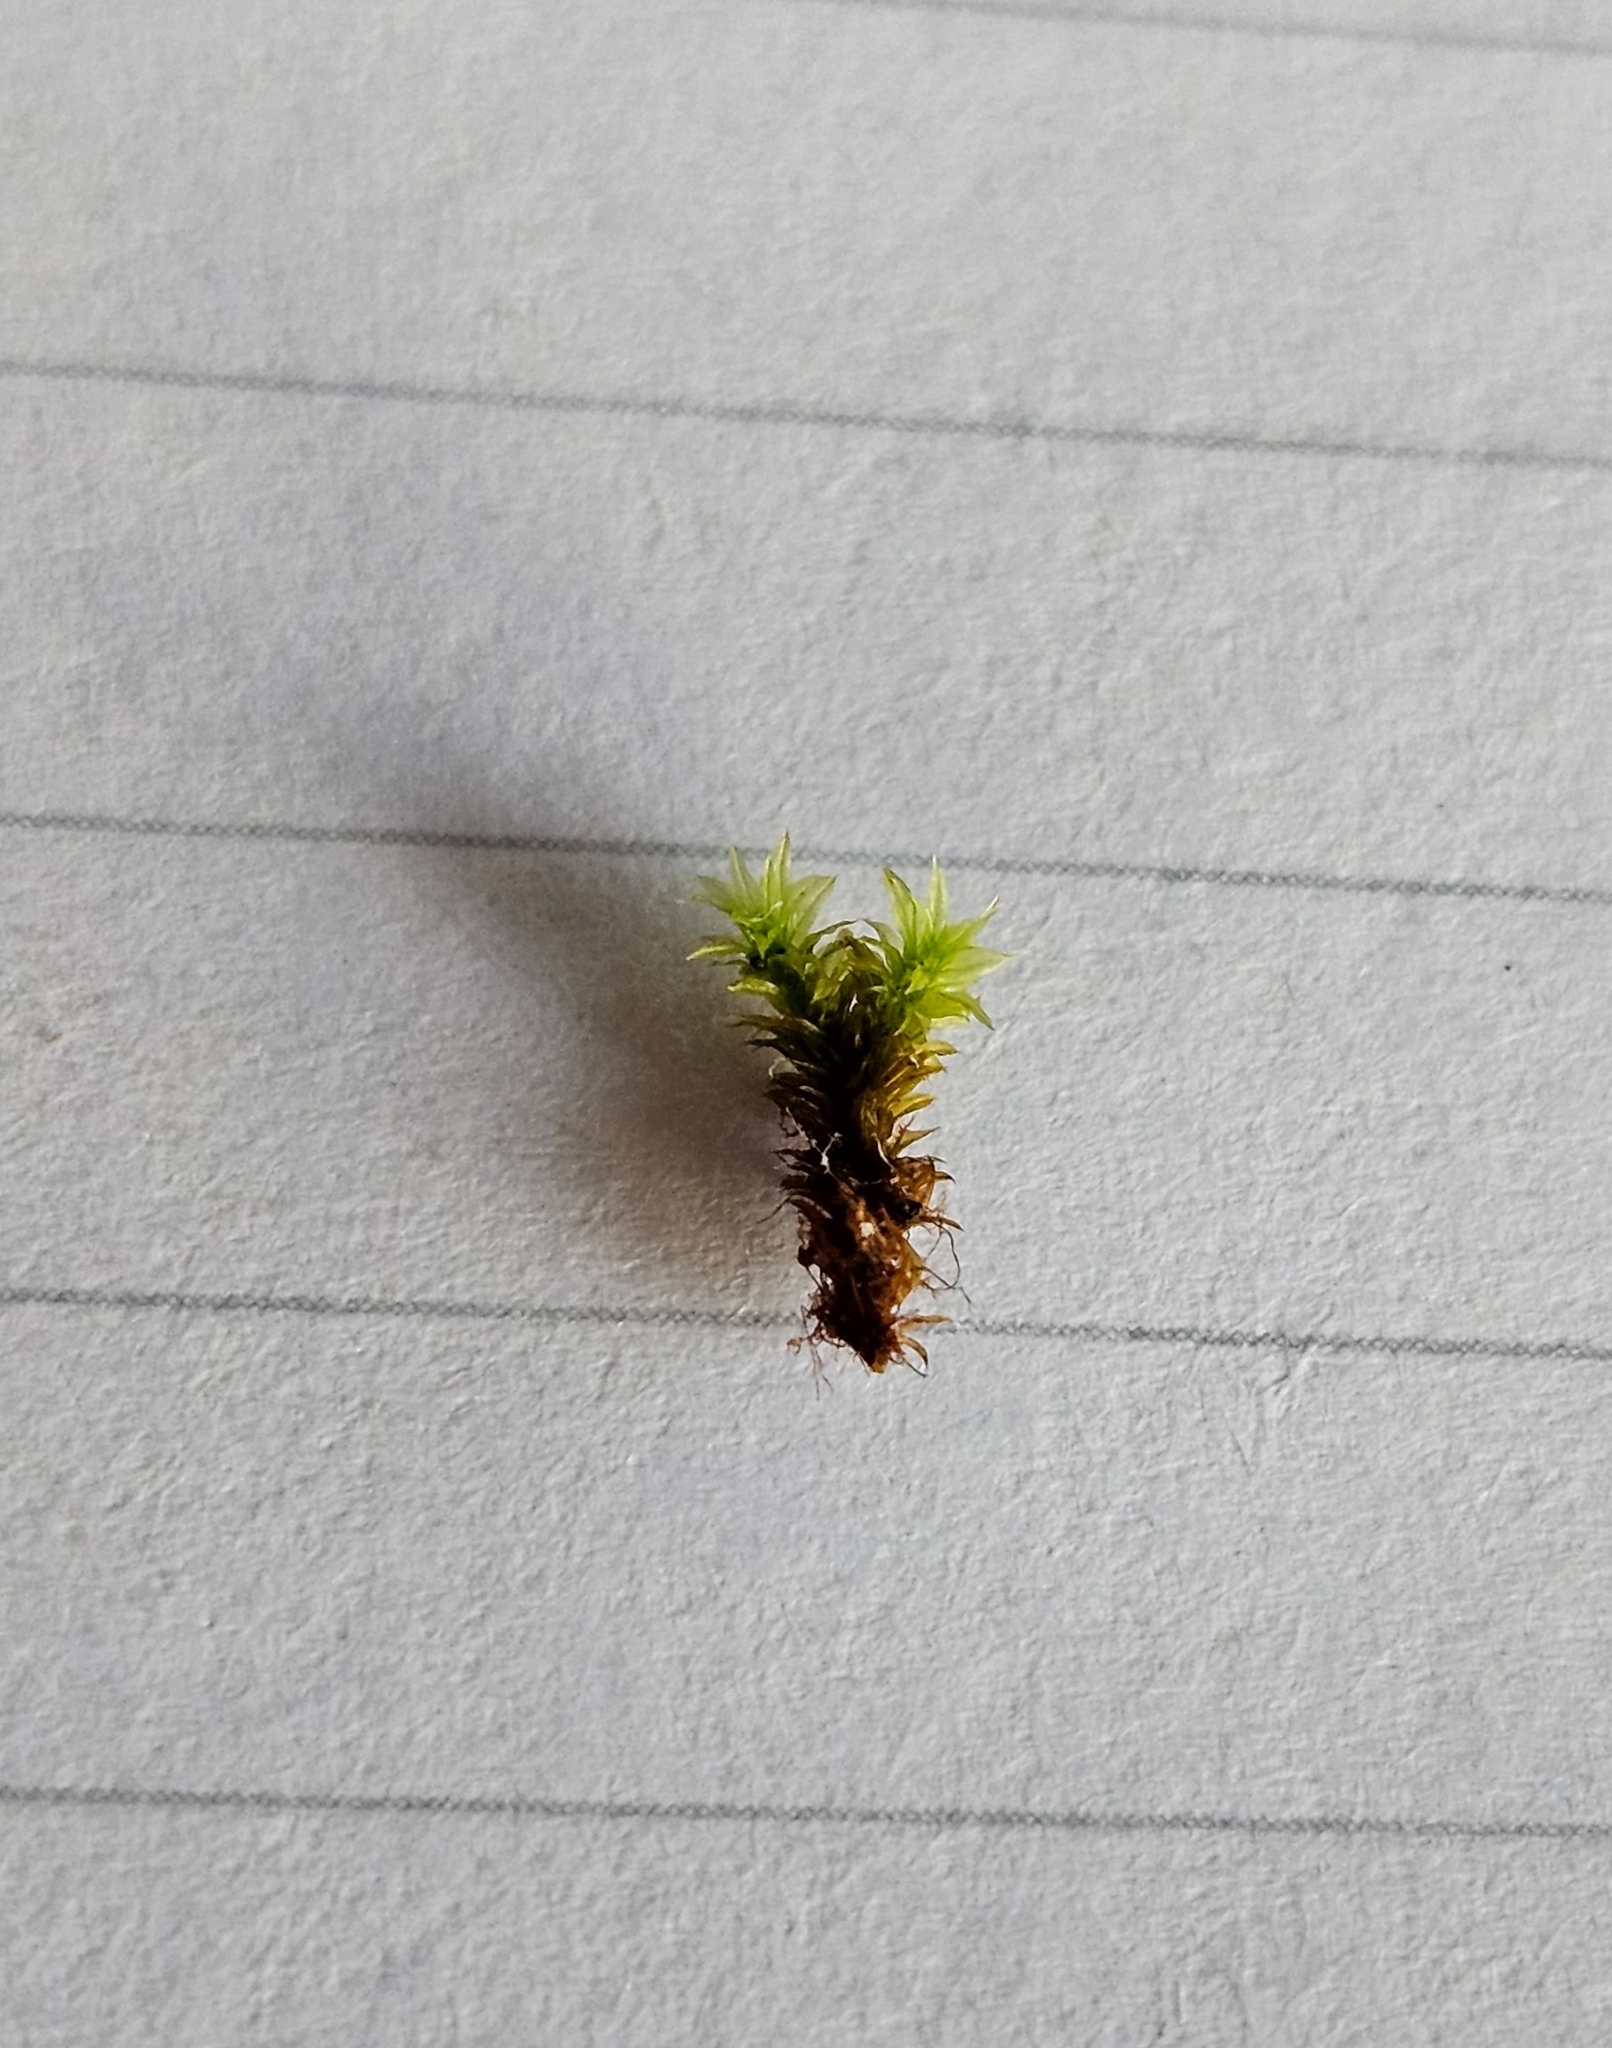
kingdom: Plantae
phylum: Bryophyta
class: Bryopsida
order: Orthotrichales
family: Orthotrichaceae
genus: Zygodon
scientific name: Zygodon stirtonii
